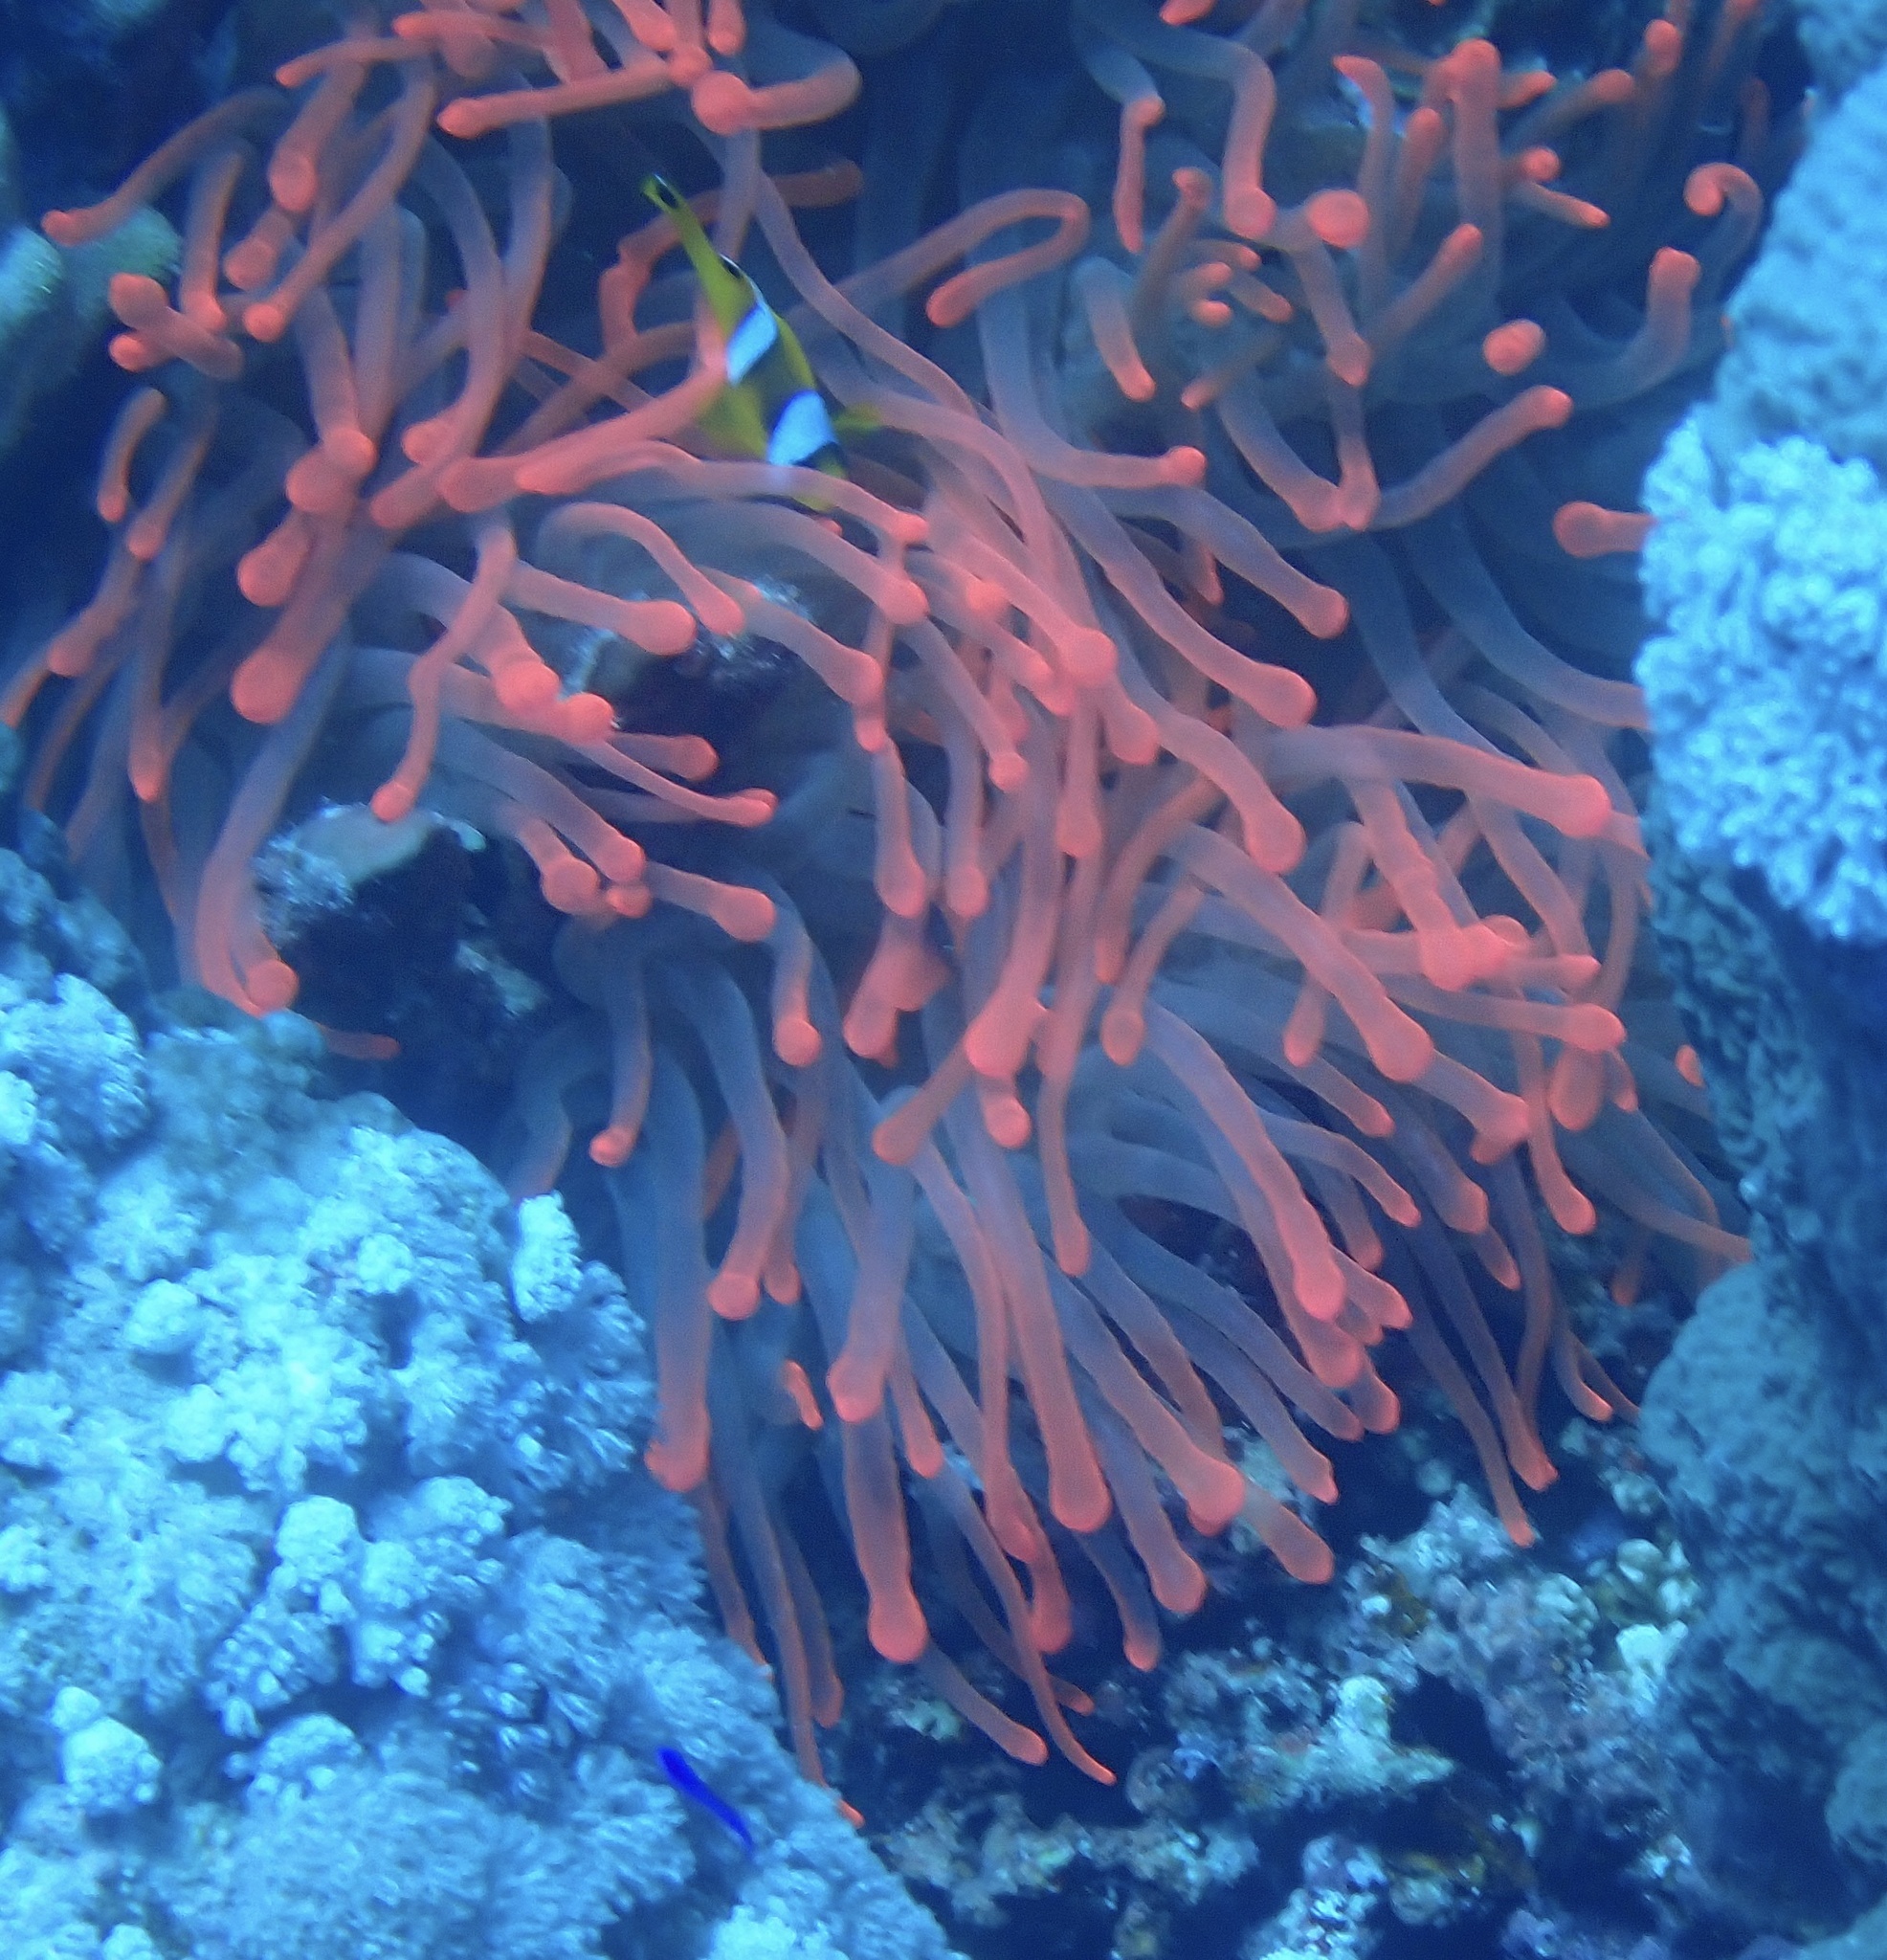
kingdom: Animalia
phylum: Cnidaria
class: Anthozoa
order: Actiniaria
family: Actiniidae
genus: Entacmaea
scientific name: Entacmaea quadricolor
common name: Bulb tentacle sea anemone
